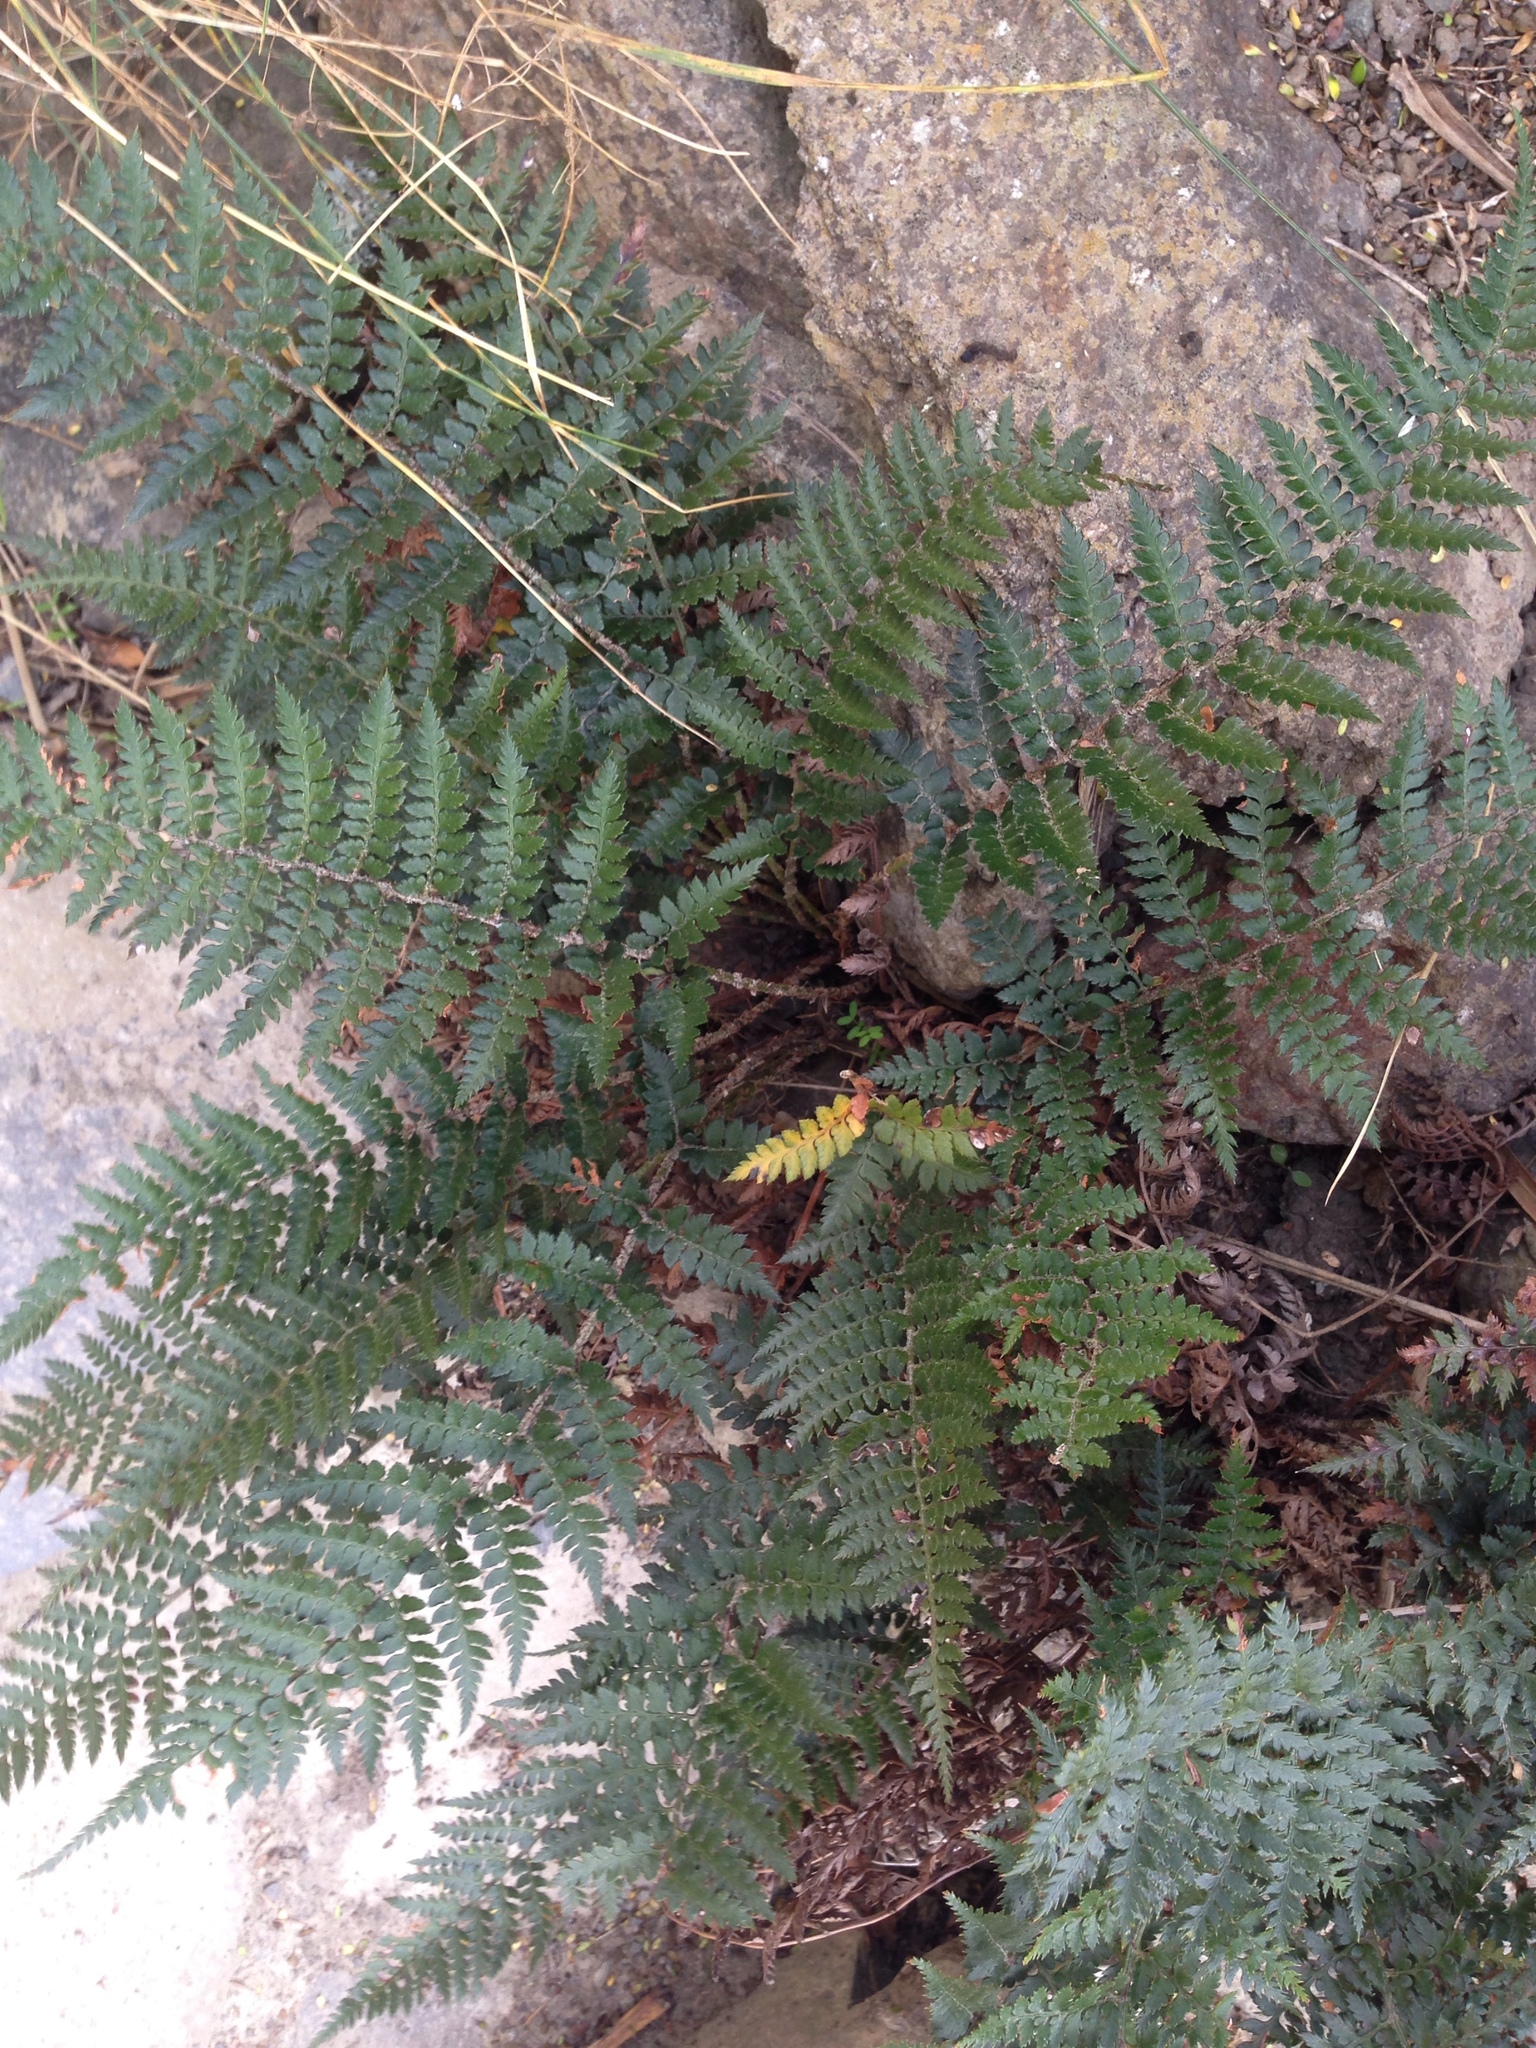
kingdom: Plantae
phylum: Tracheophyta
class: Polypodiopsida
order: Polypodiales
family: Dryopteridaceae
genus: Polystichum
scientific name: Polystichum oculatum
